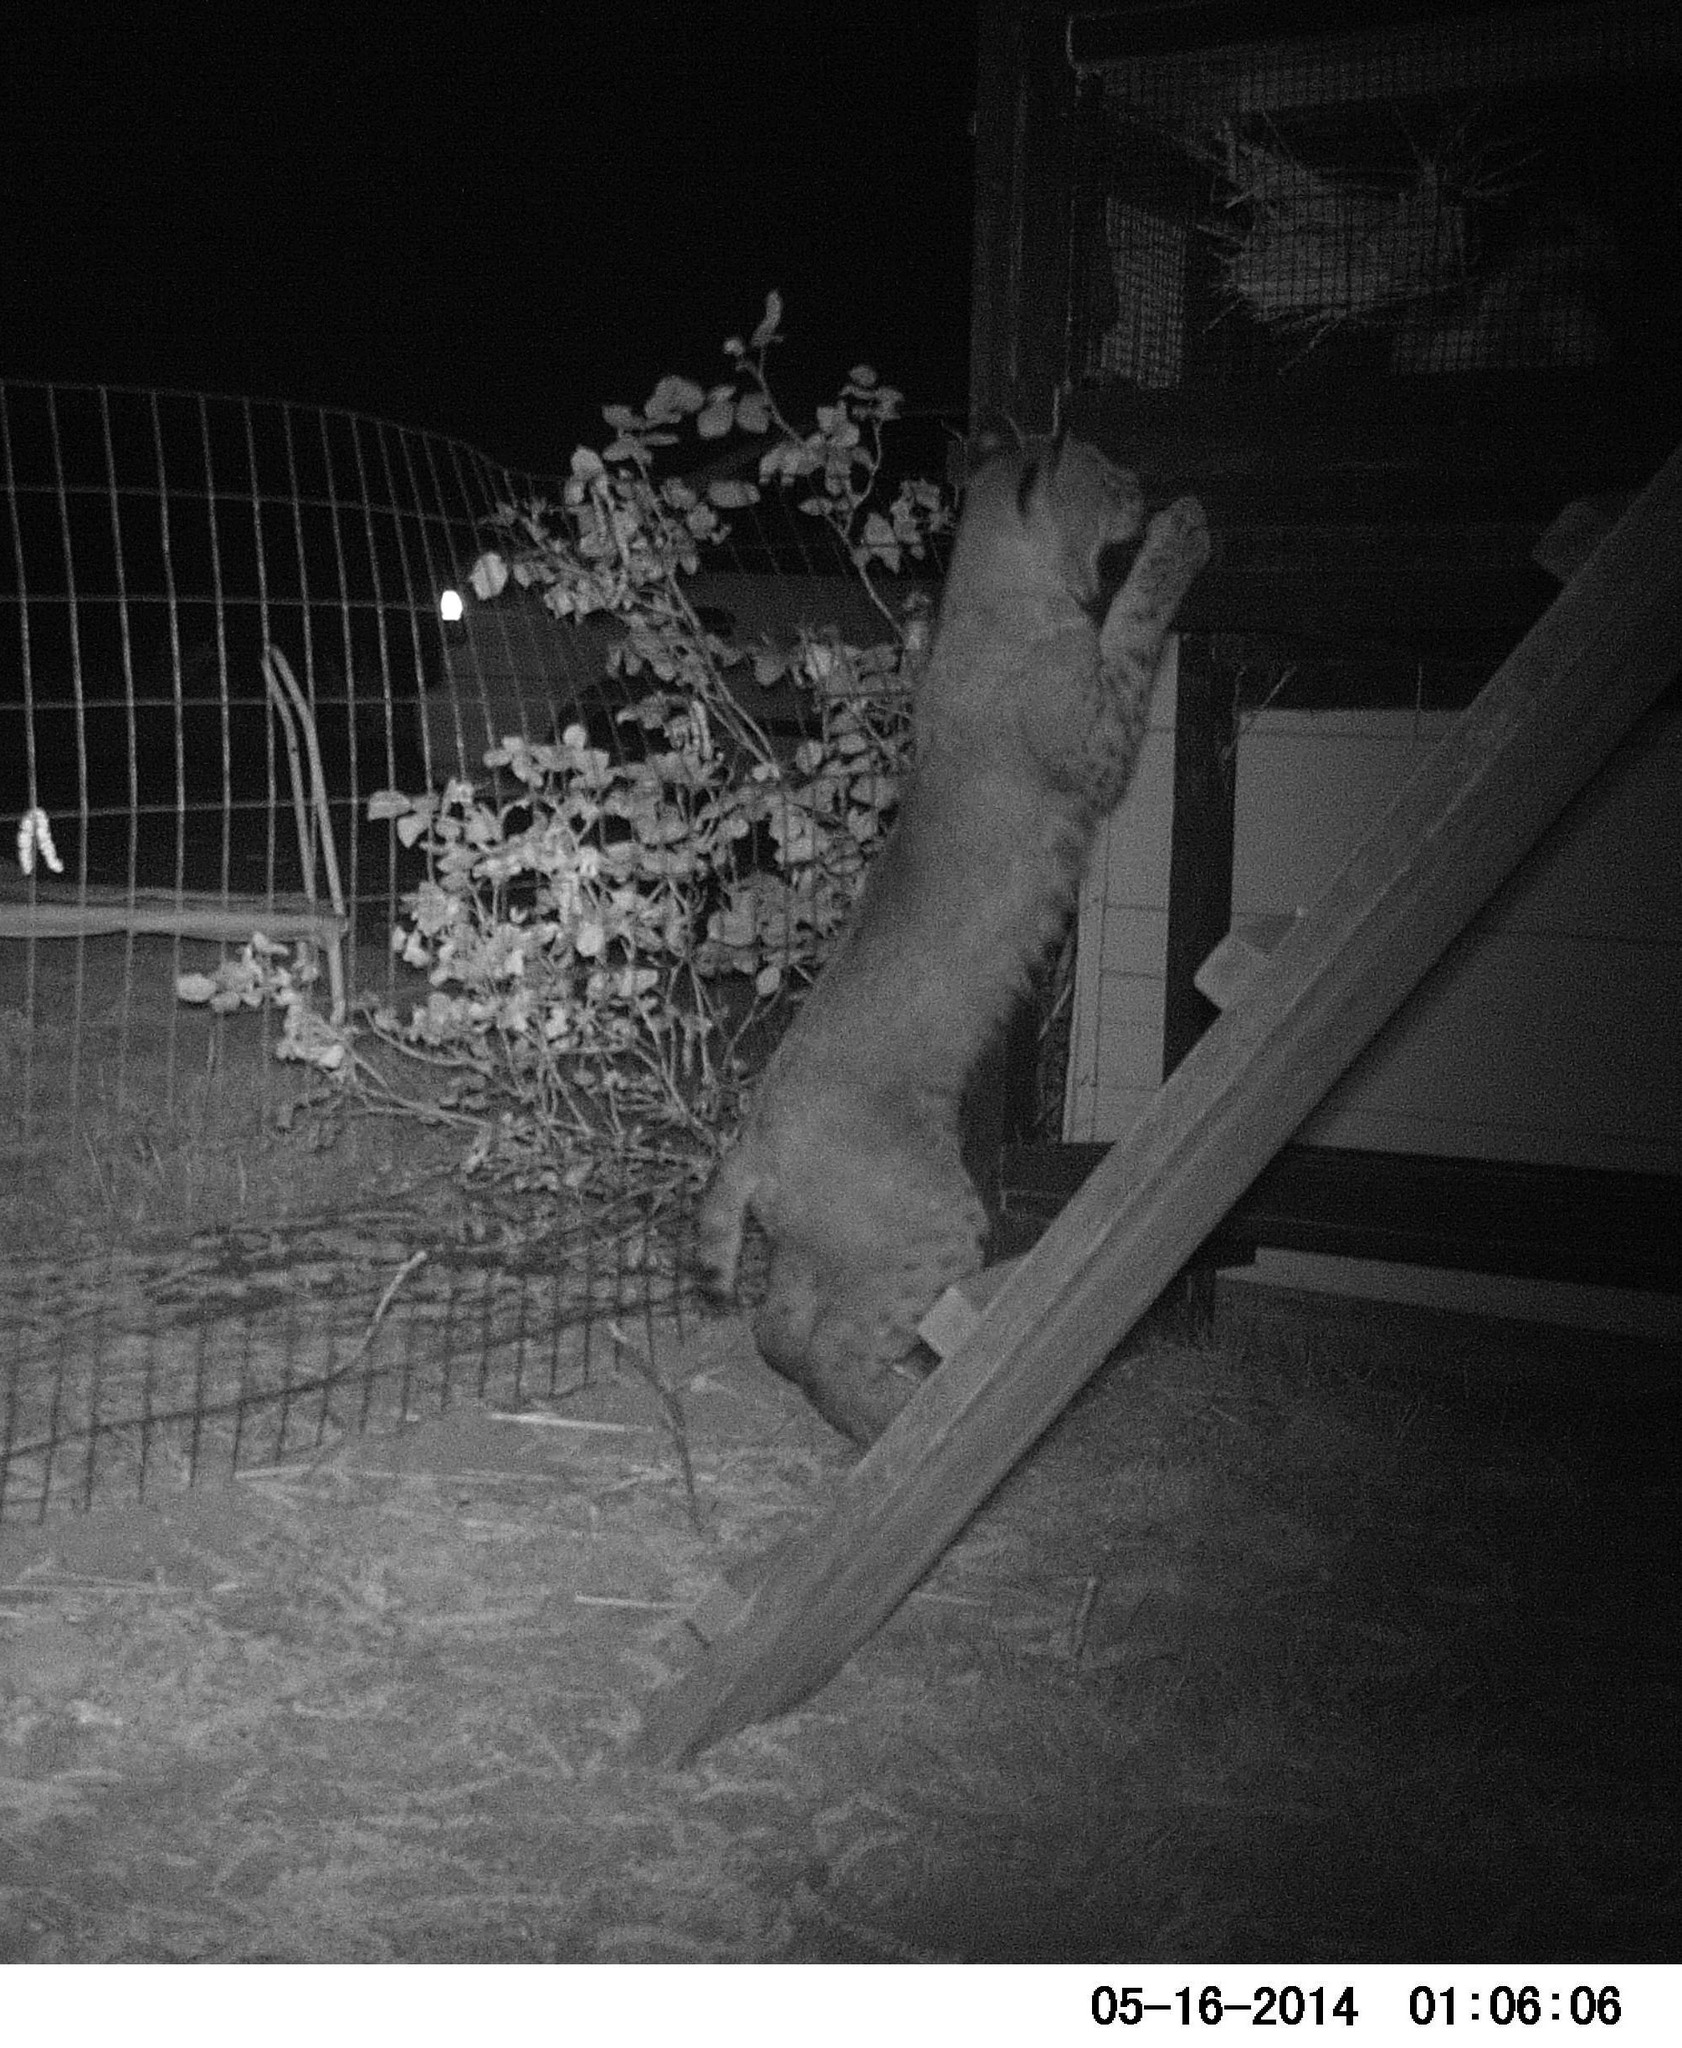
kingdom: Animalia
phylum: Chordata
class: Mammalia
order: Carnivora
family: Felidae
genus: Lynx
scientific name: Lynx rufus
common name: Bobcat
